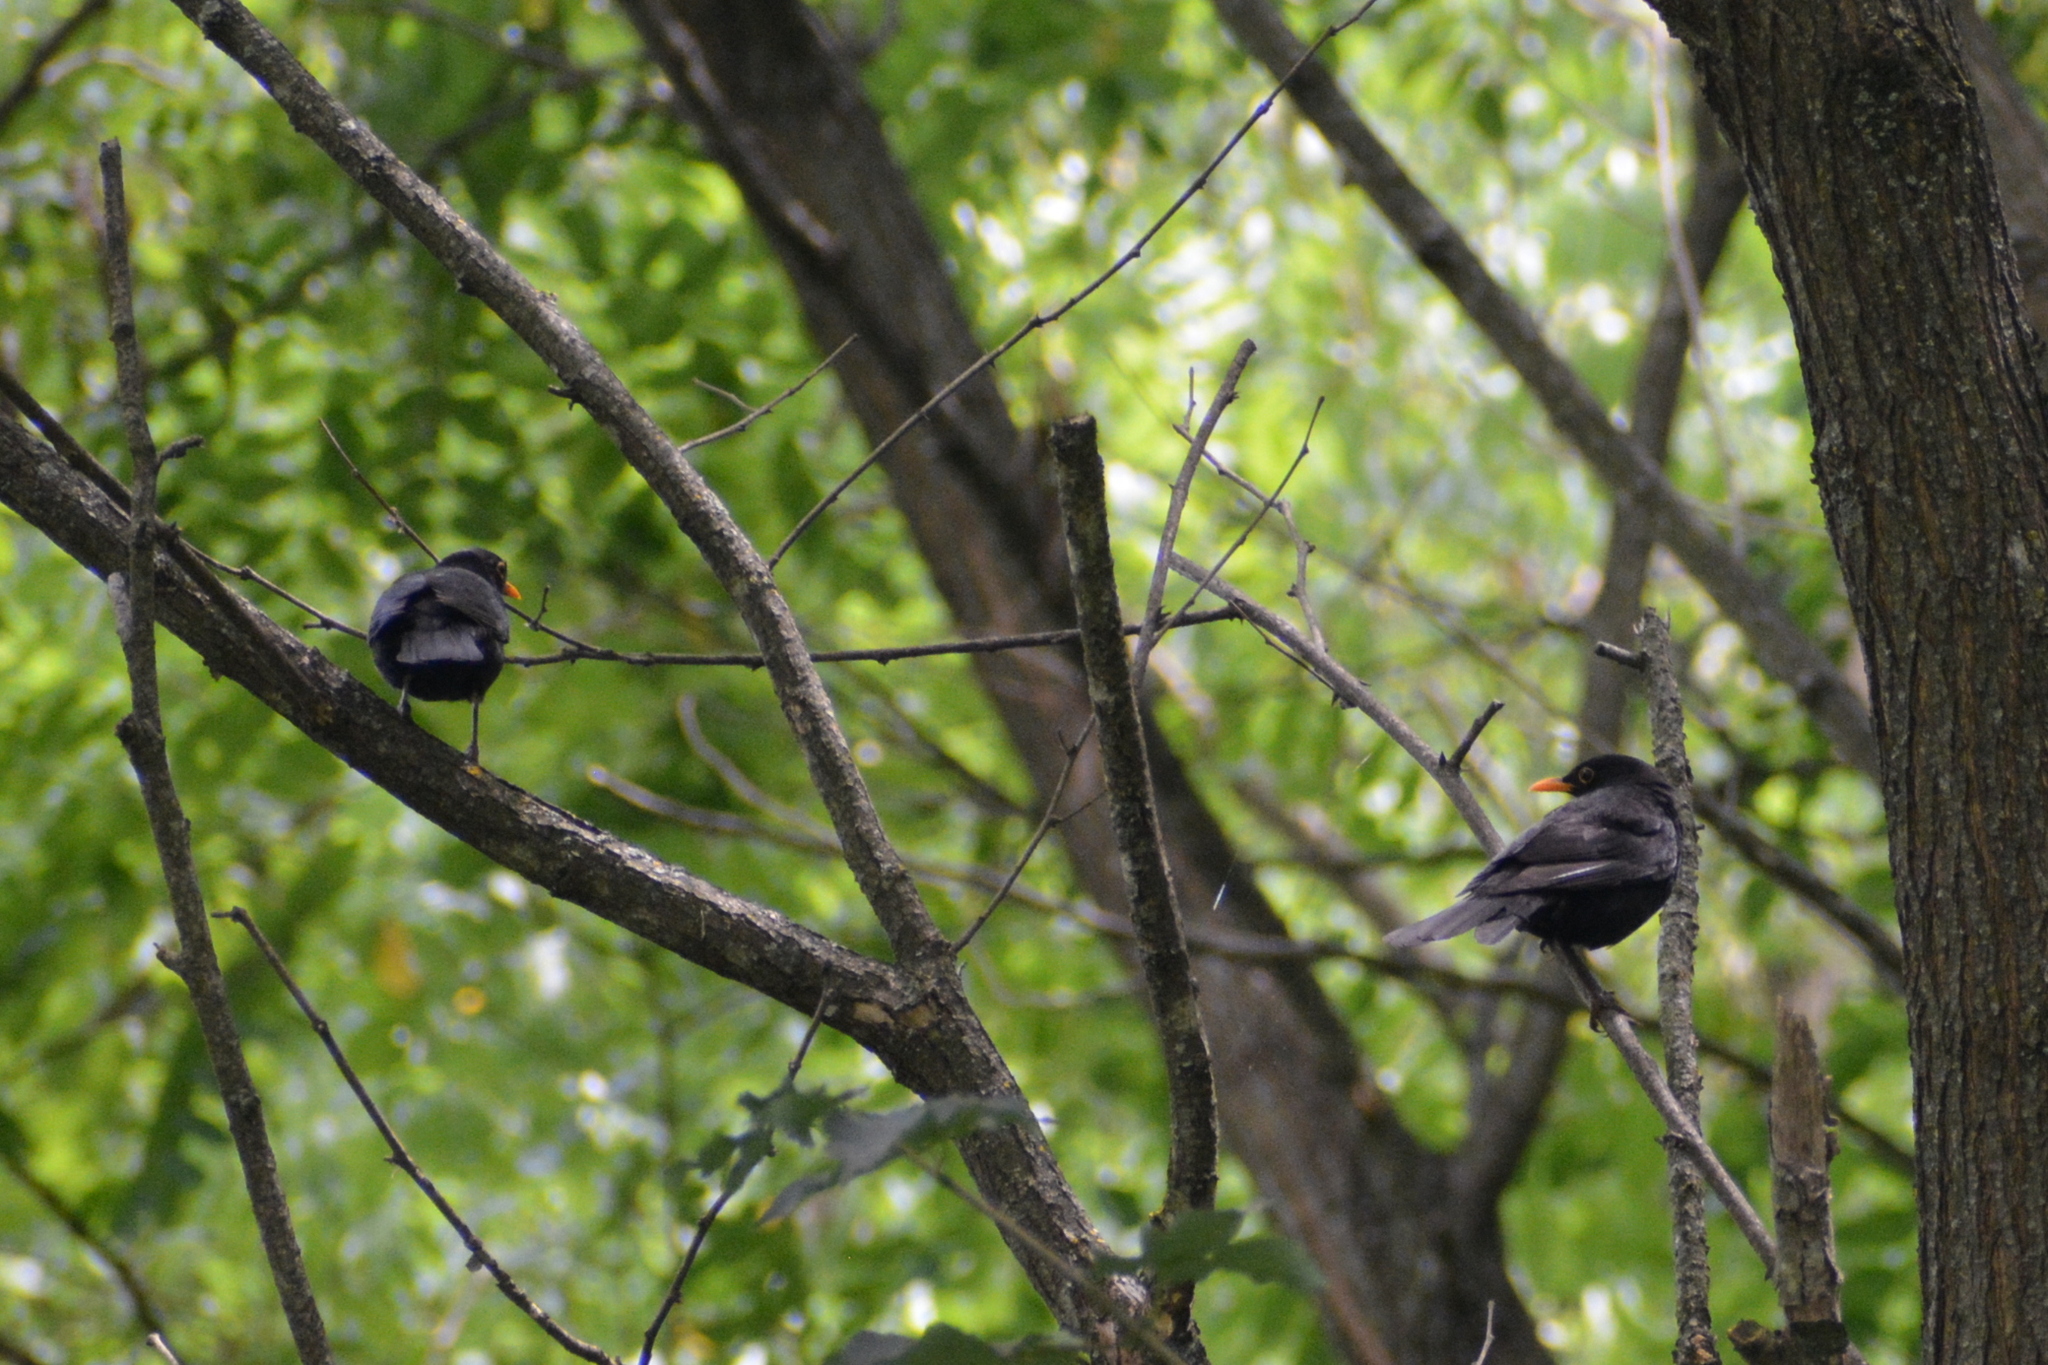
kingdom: Animalia
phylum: Chordata
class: Aves
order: Passeriformes
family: Turdidae
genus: Turdus
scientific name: Turdus merula
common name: Common blackbird
